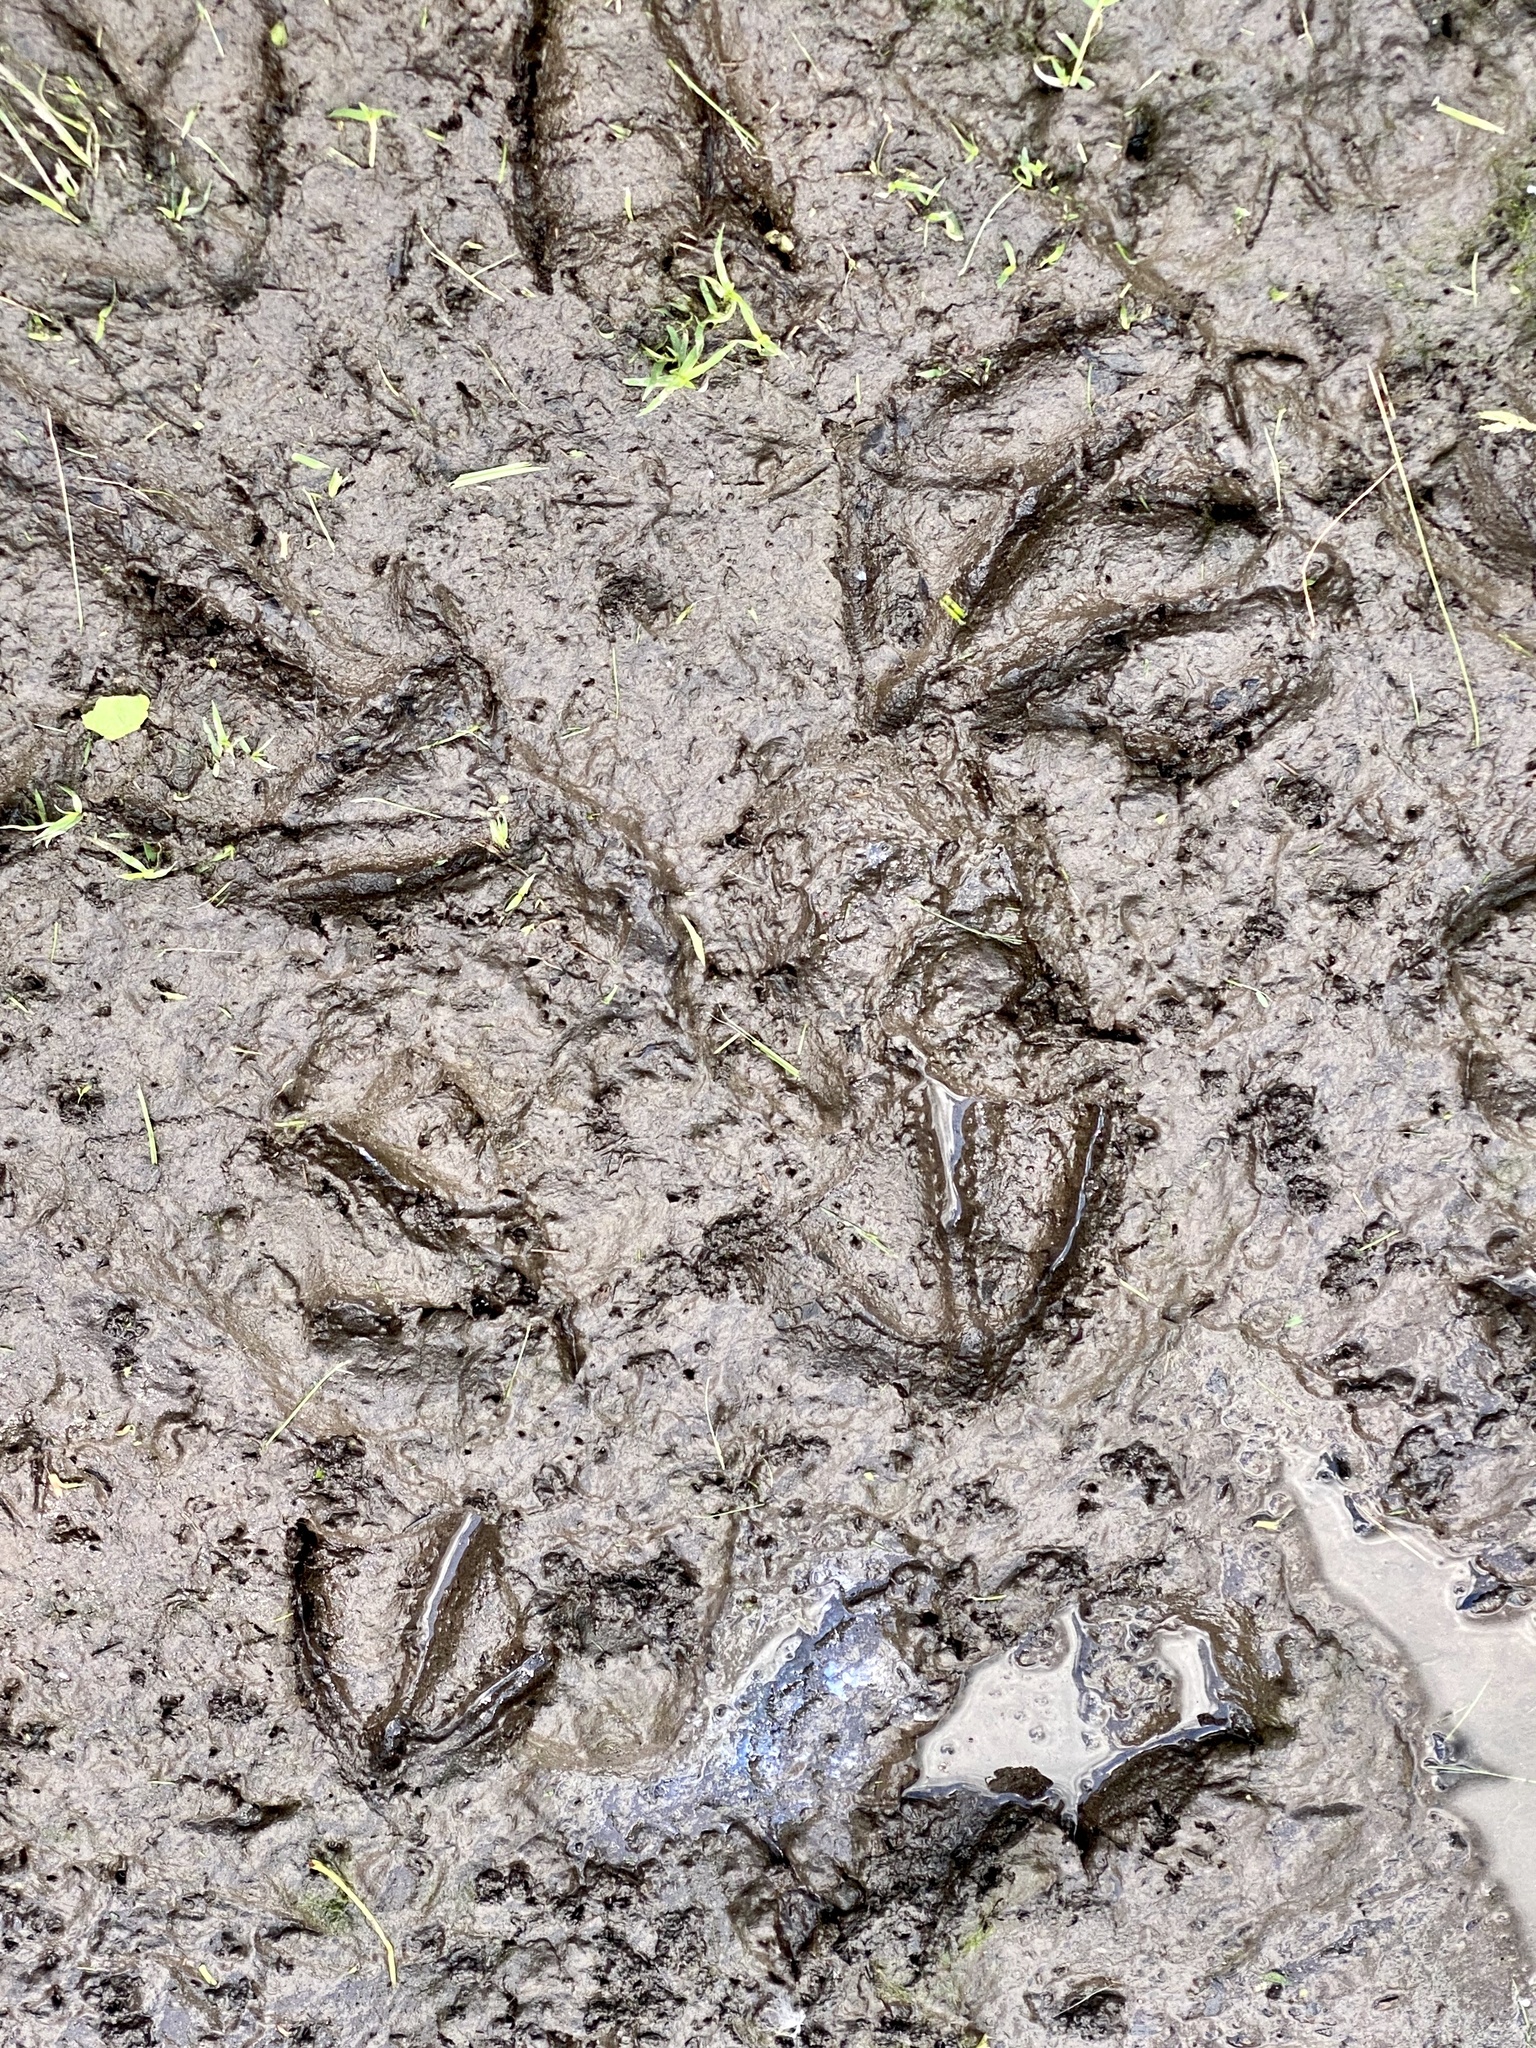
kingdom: Animalia
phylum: Chordata
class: Mammalia
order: Artiodactyla
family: Cervidae
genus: Odocoileus
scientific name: Odocoileus virginianus
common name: White-tailed deer
